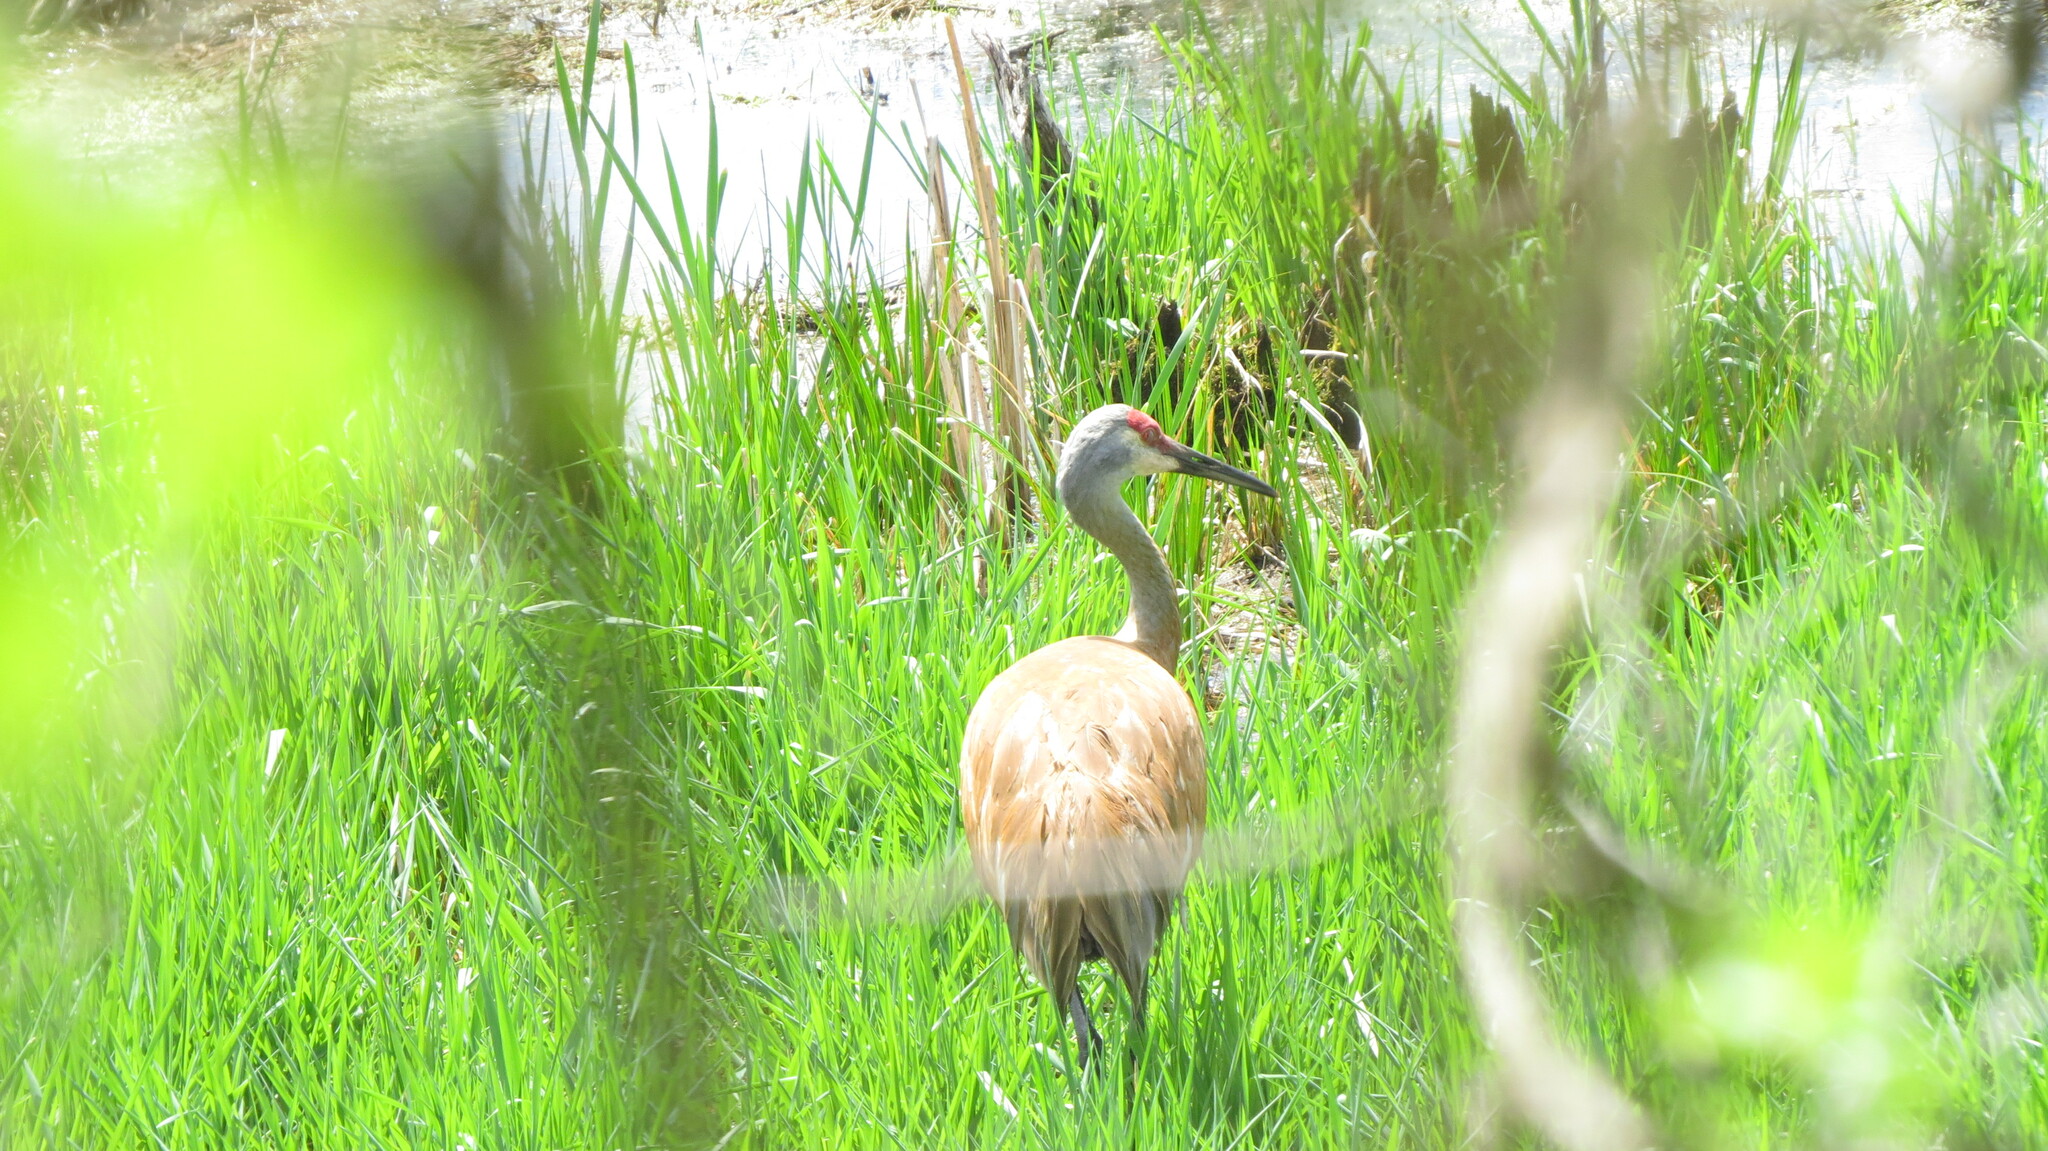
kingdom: Animalia
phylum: Chordata
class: Aves
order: Gruiformes
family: Gruidae
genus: Grus
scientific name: Grus canadensis
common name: Sandhill crane
